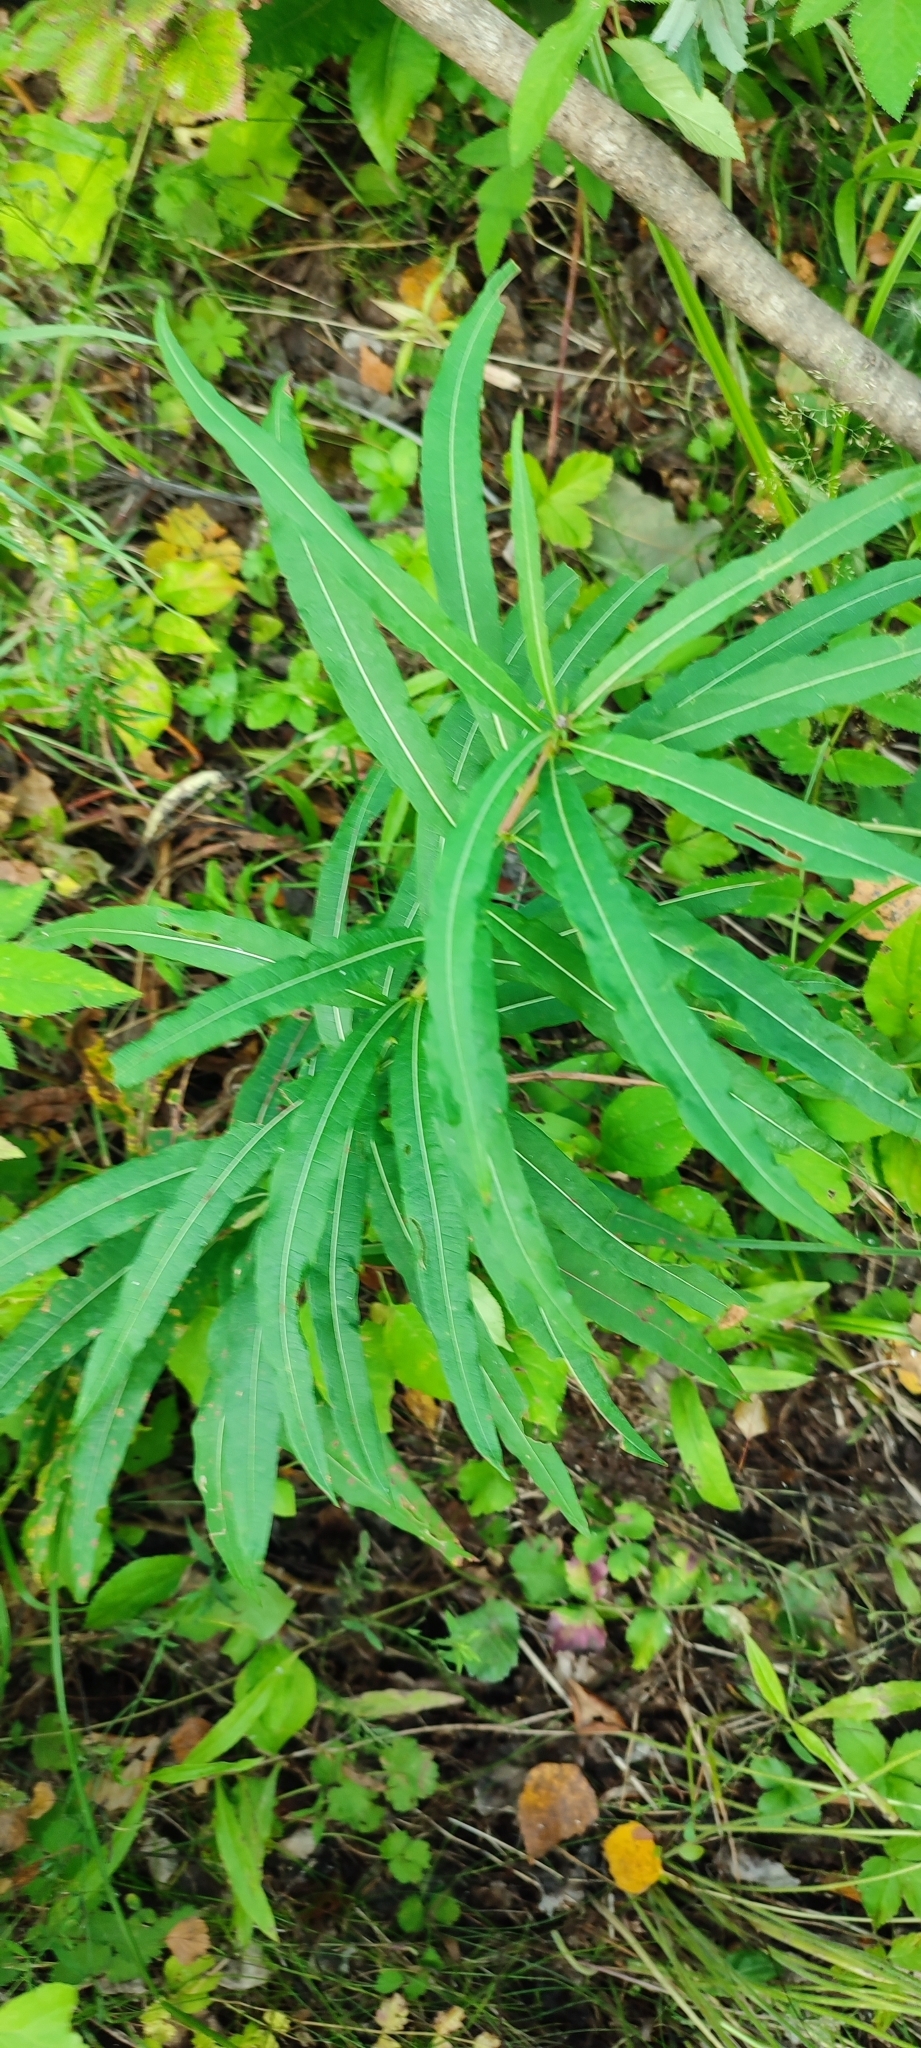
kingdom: Plantae
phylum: Tracheophyta
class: Magnoliopsida
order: Myrtales
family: Onagraceae
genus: Chamaenerion
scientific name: Chamaenerion angustifolium
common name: Fireweed
